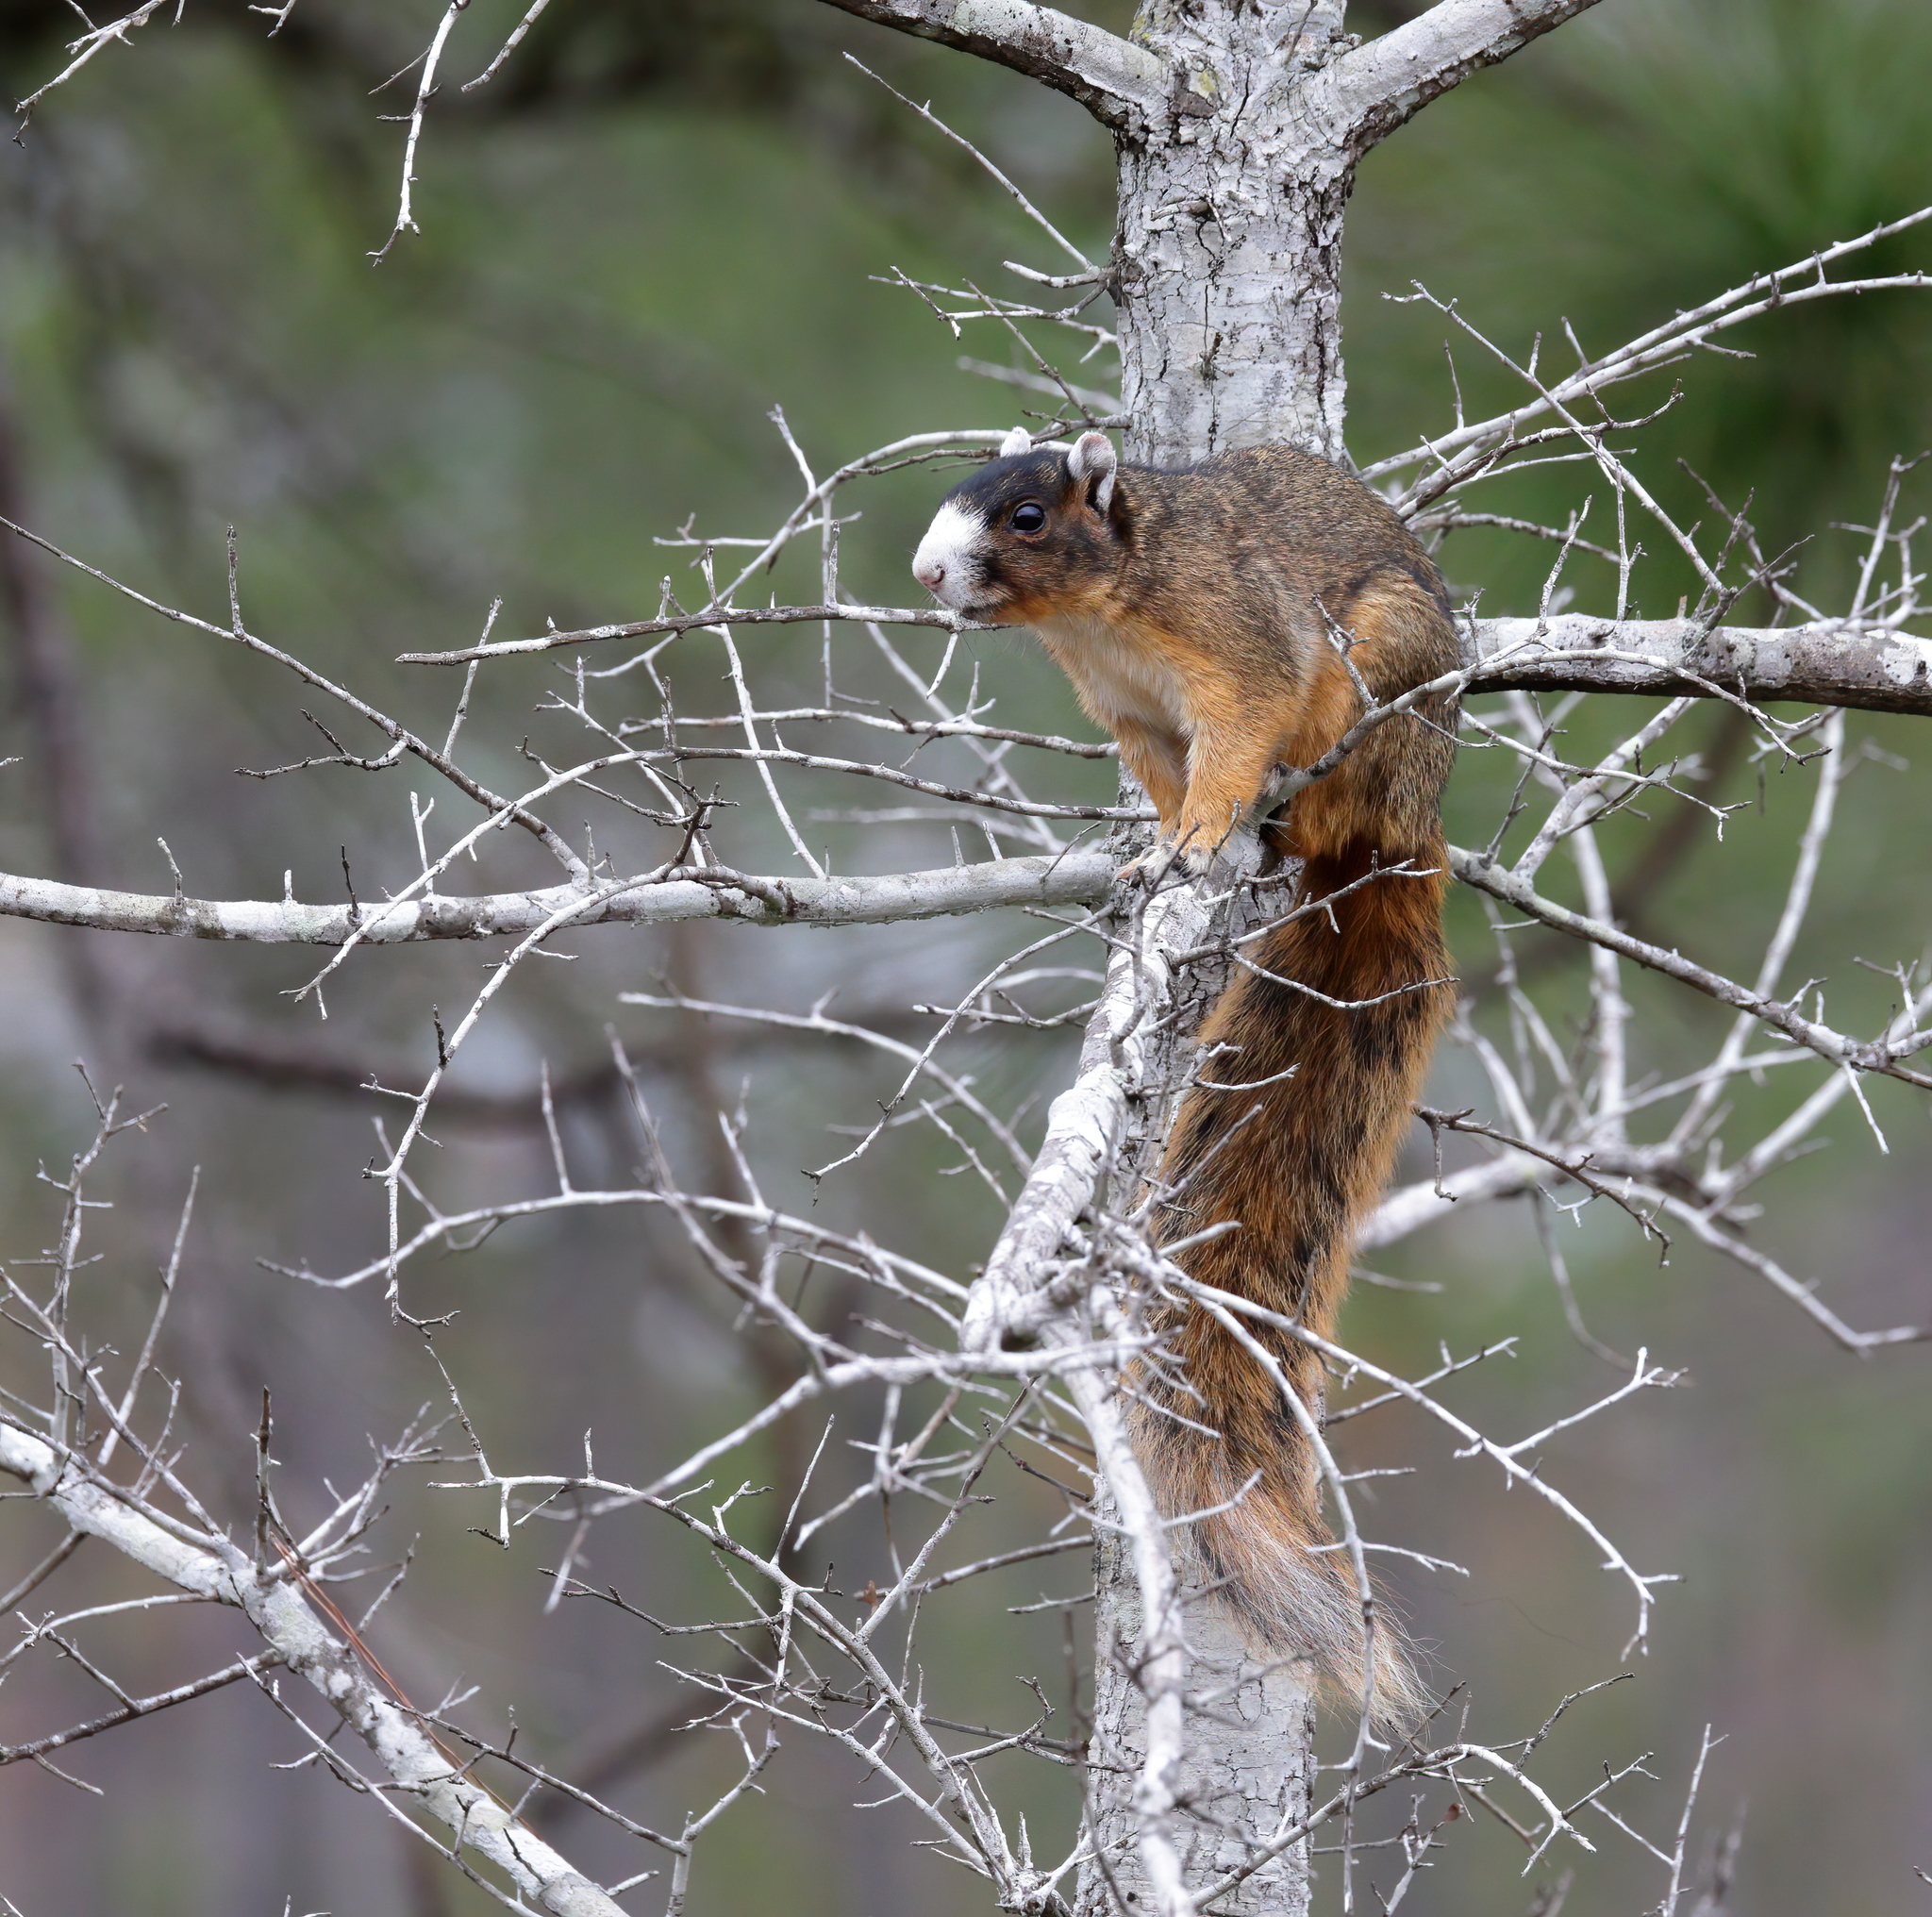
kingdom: Animalia
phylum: Chordata
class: Mammalia
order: Rodentia
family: Sciuridae
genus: Sciurus
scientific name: Sciurus niger
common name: Fox squirrel
